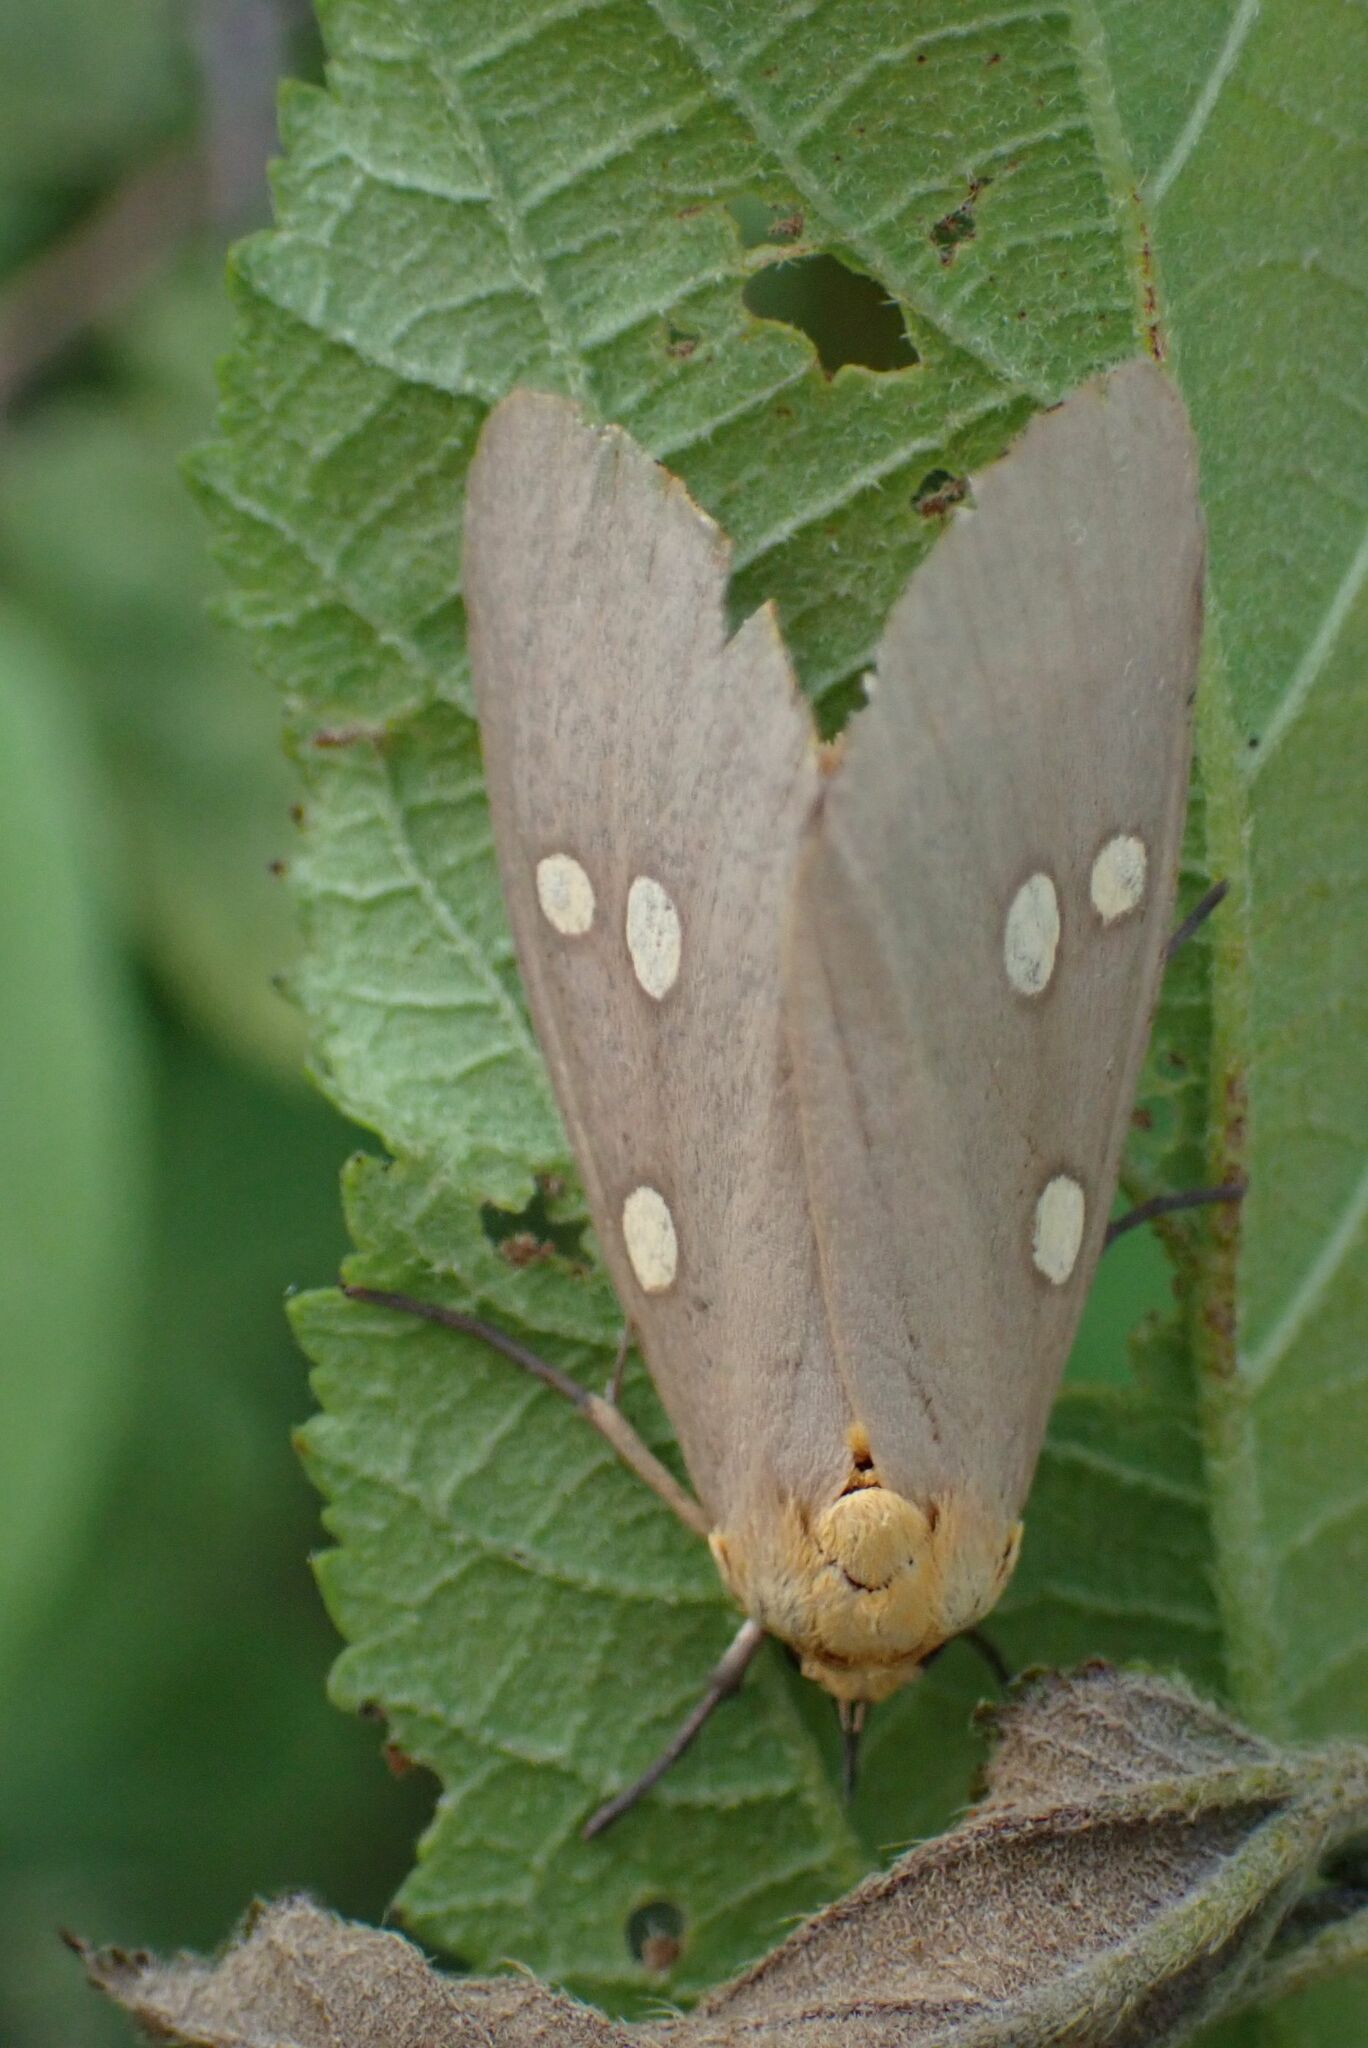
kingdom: Animalia
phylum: Arthropoda
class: Insecta
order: Lepidoptera
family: Erebidae
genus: Rhanidophora
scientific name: Rhanidophora ridens
